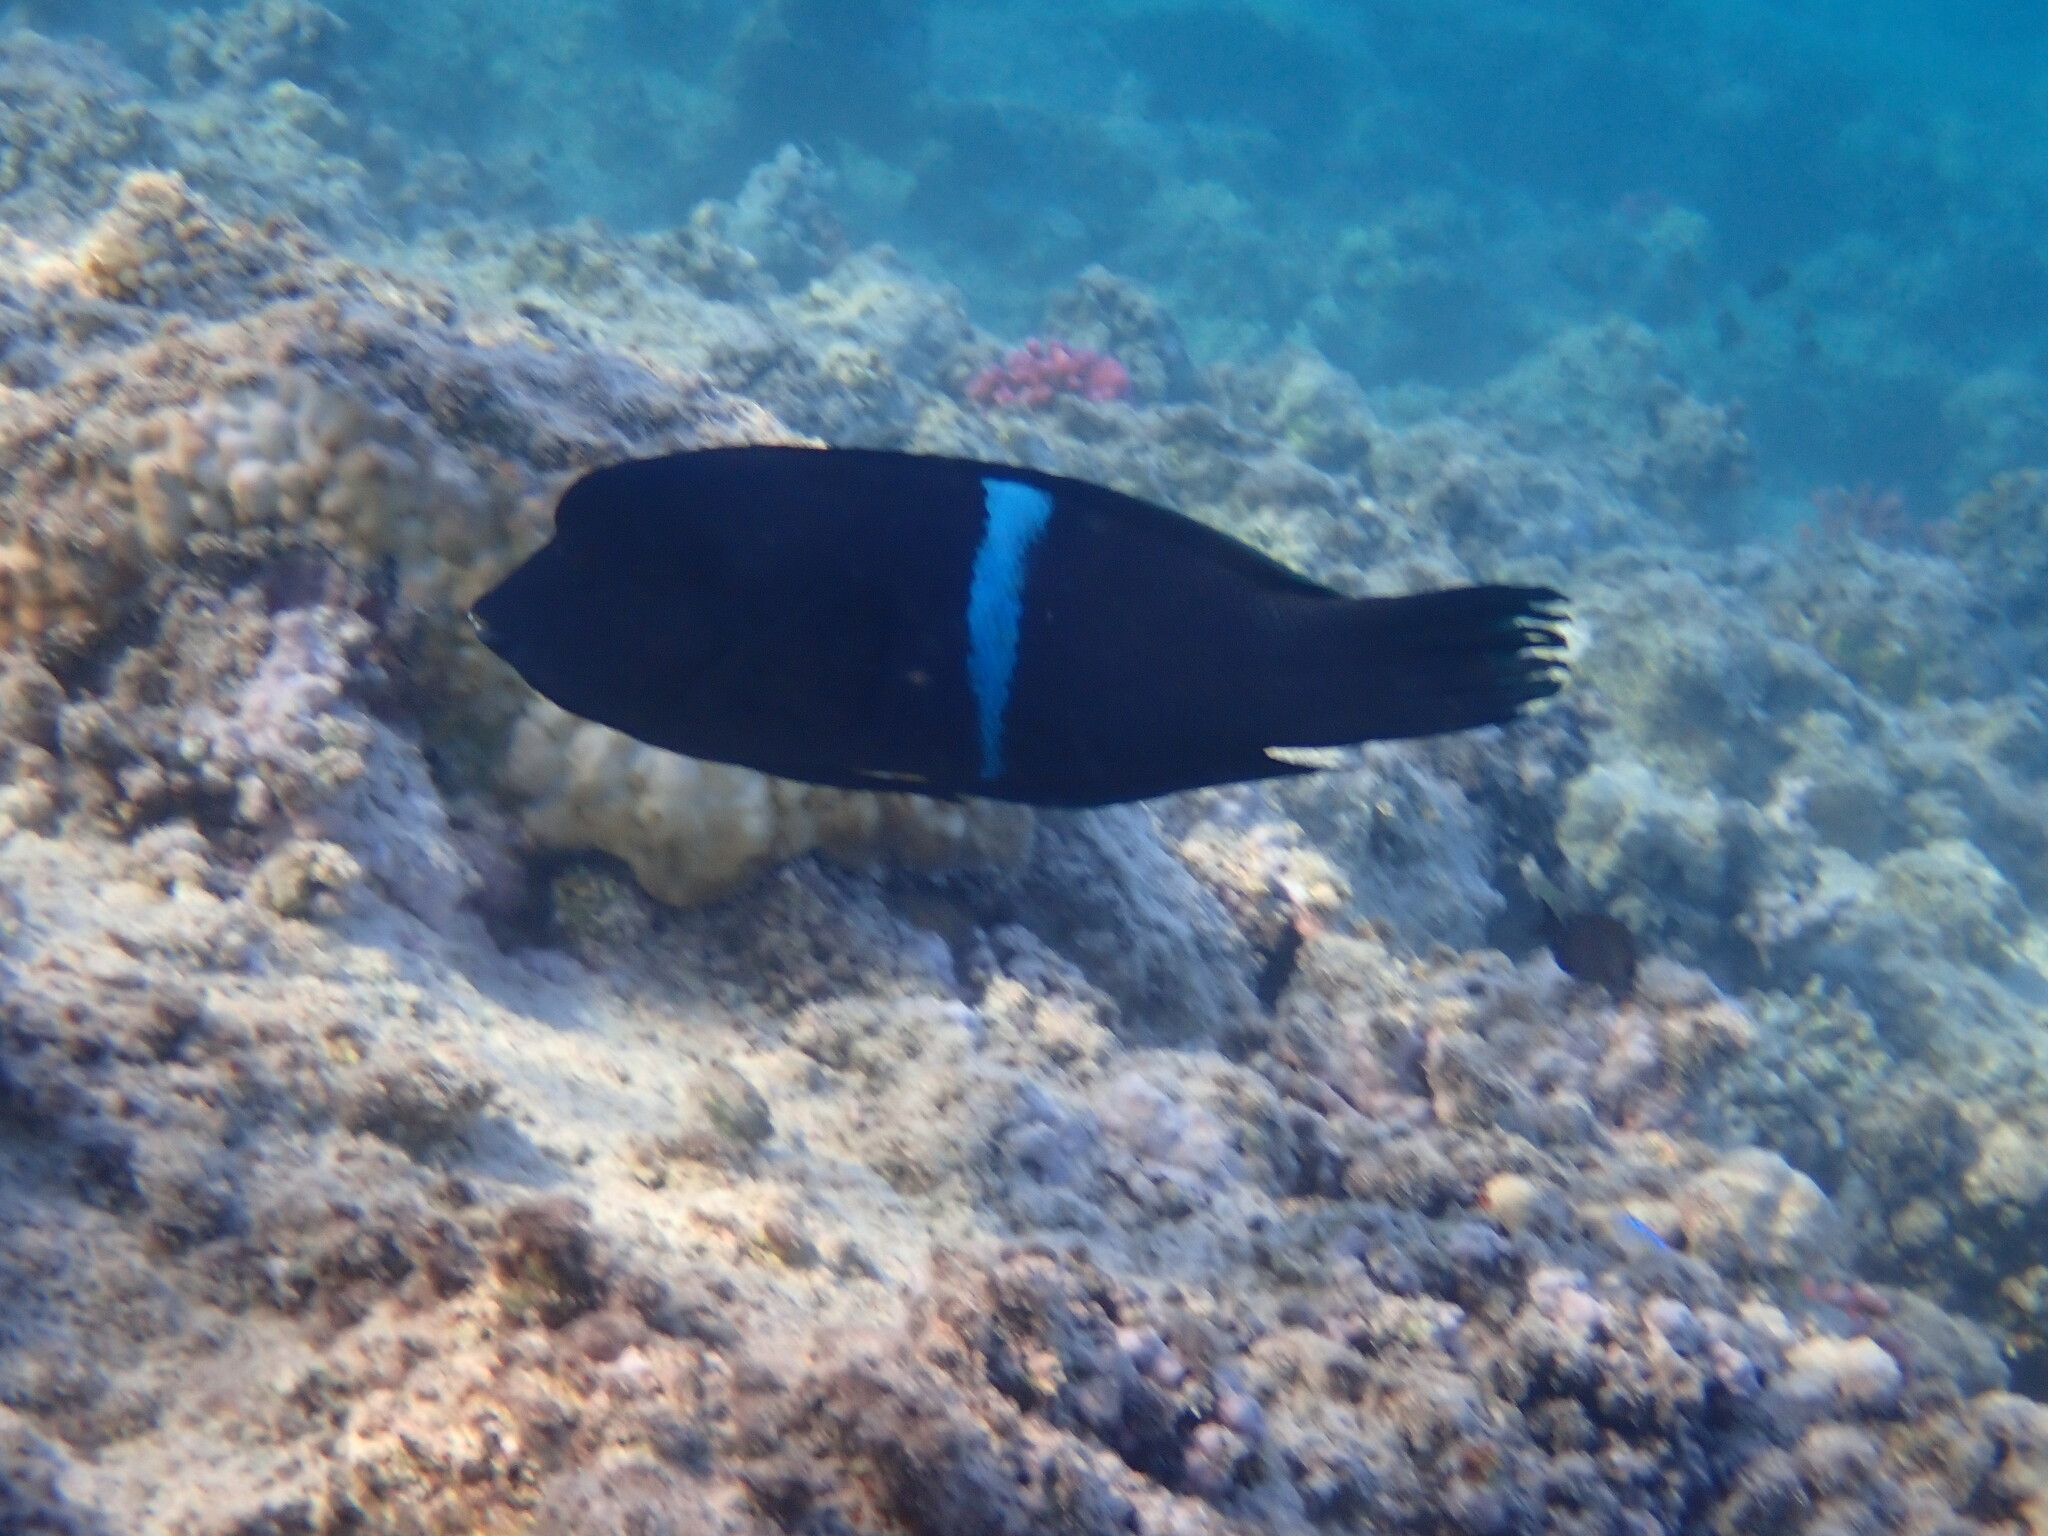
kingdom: Animalia
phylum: Chordata
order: Perciformes
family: Labridae
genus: Coris
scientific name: Coris aygula
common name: Clown coris
